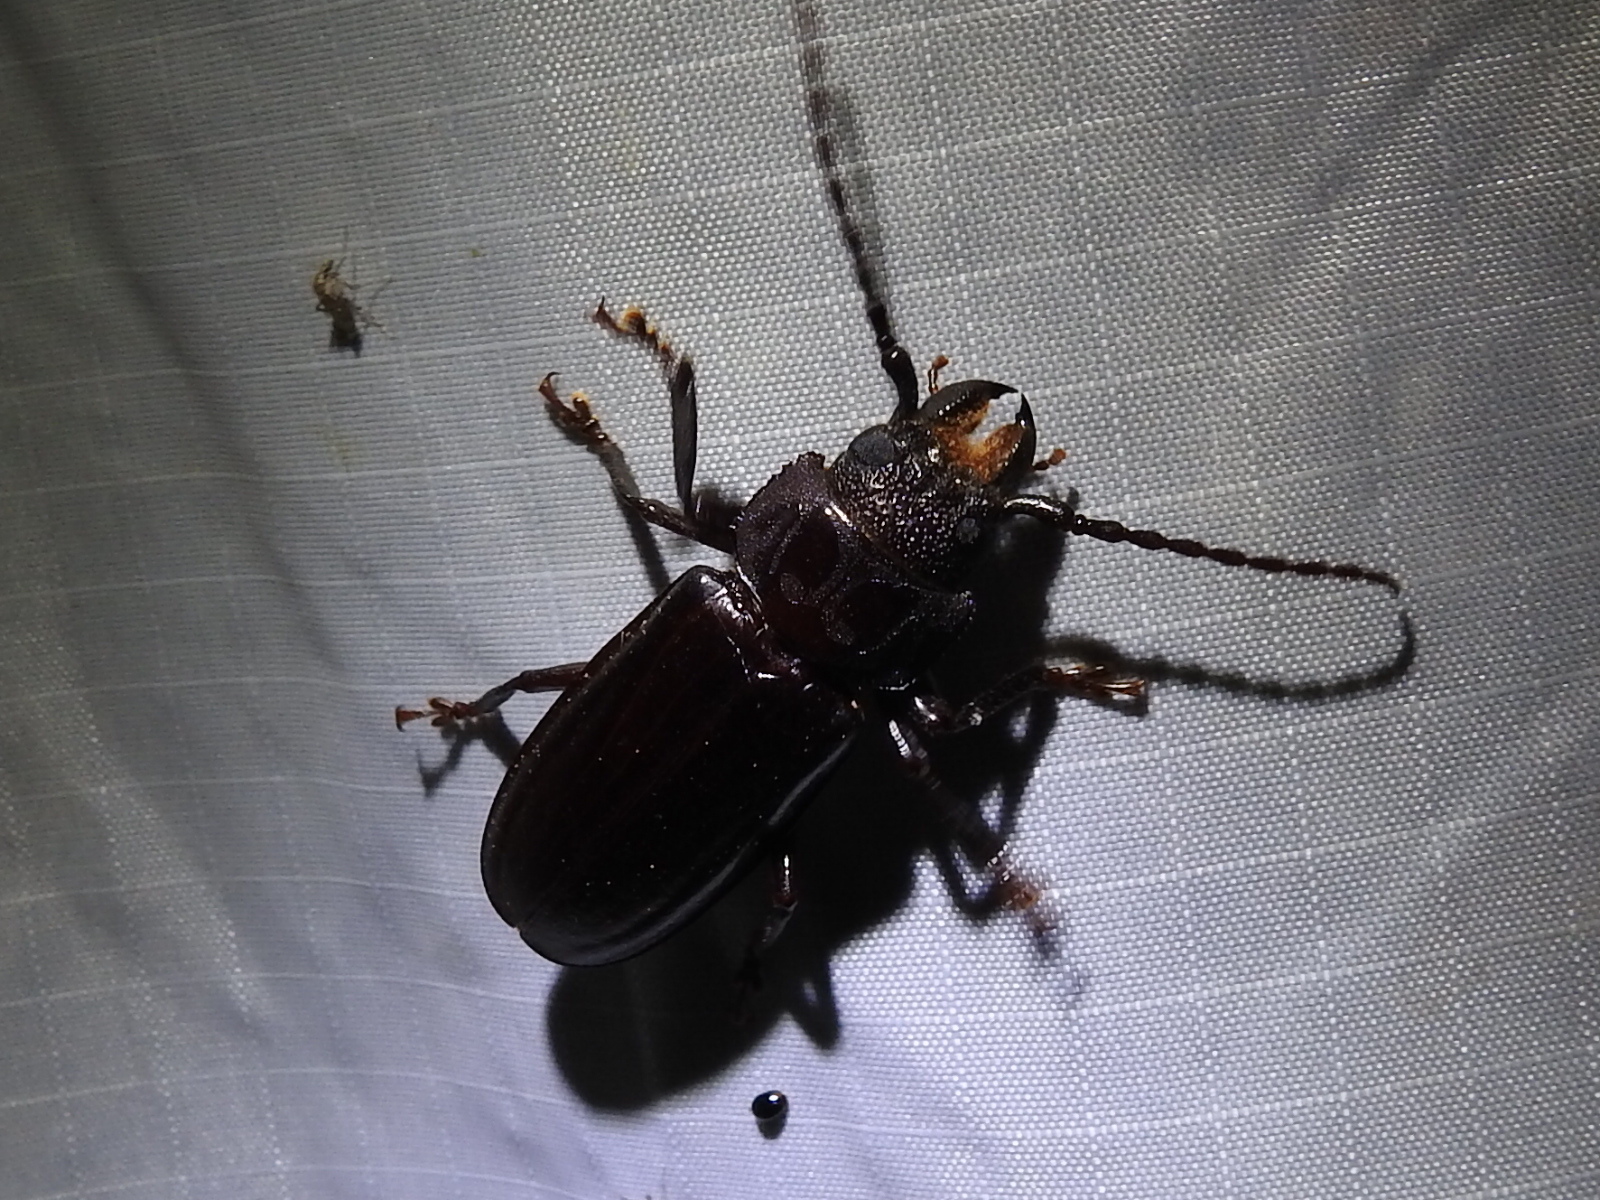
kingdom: Animalia
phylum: Arthropoda
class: Insecta
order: Coleoptera
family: Cerambycidae
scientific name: Cerambycidae
